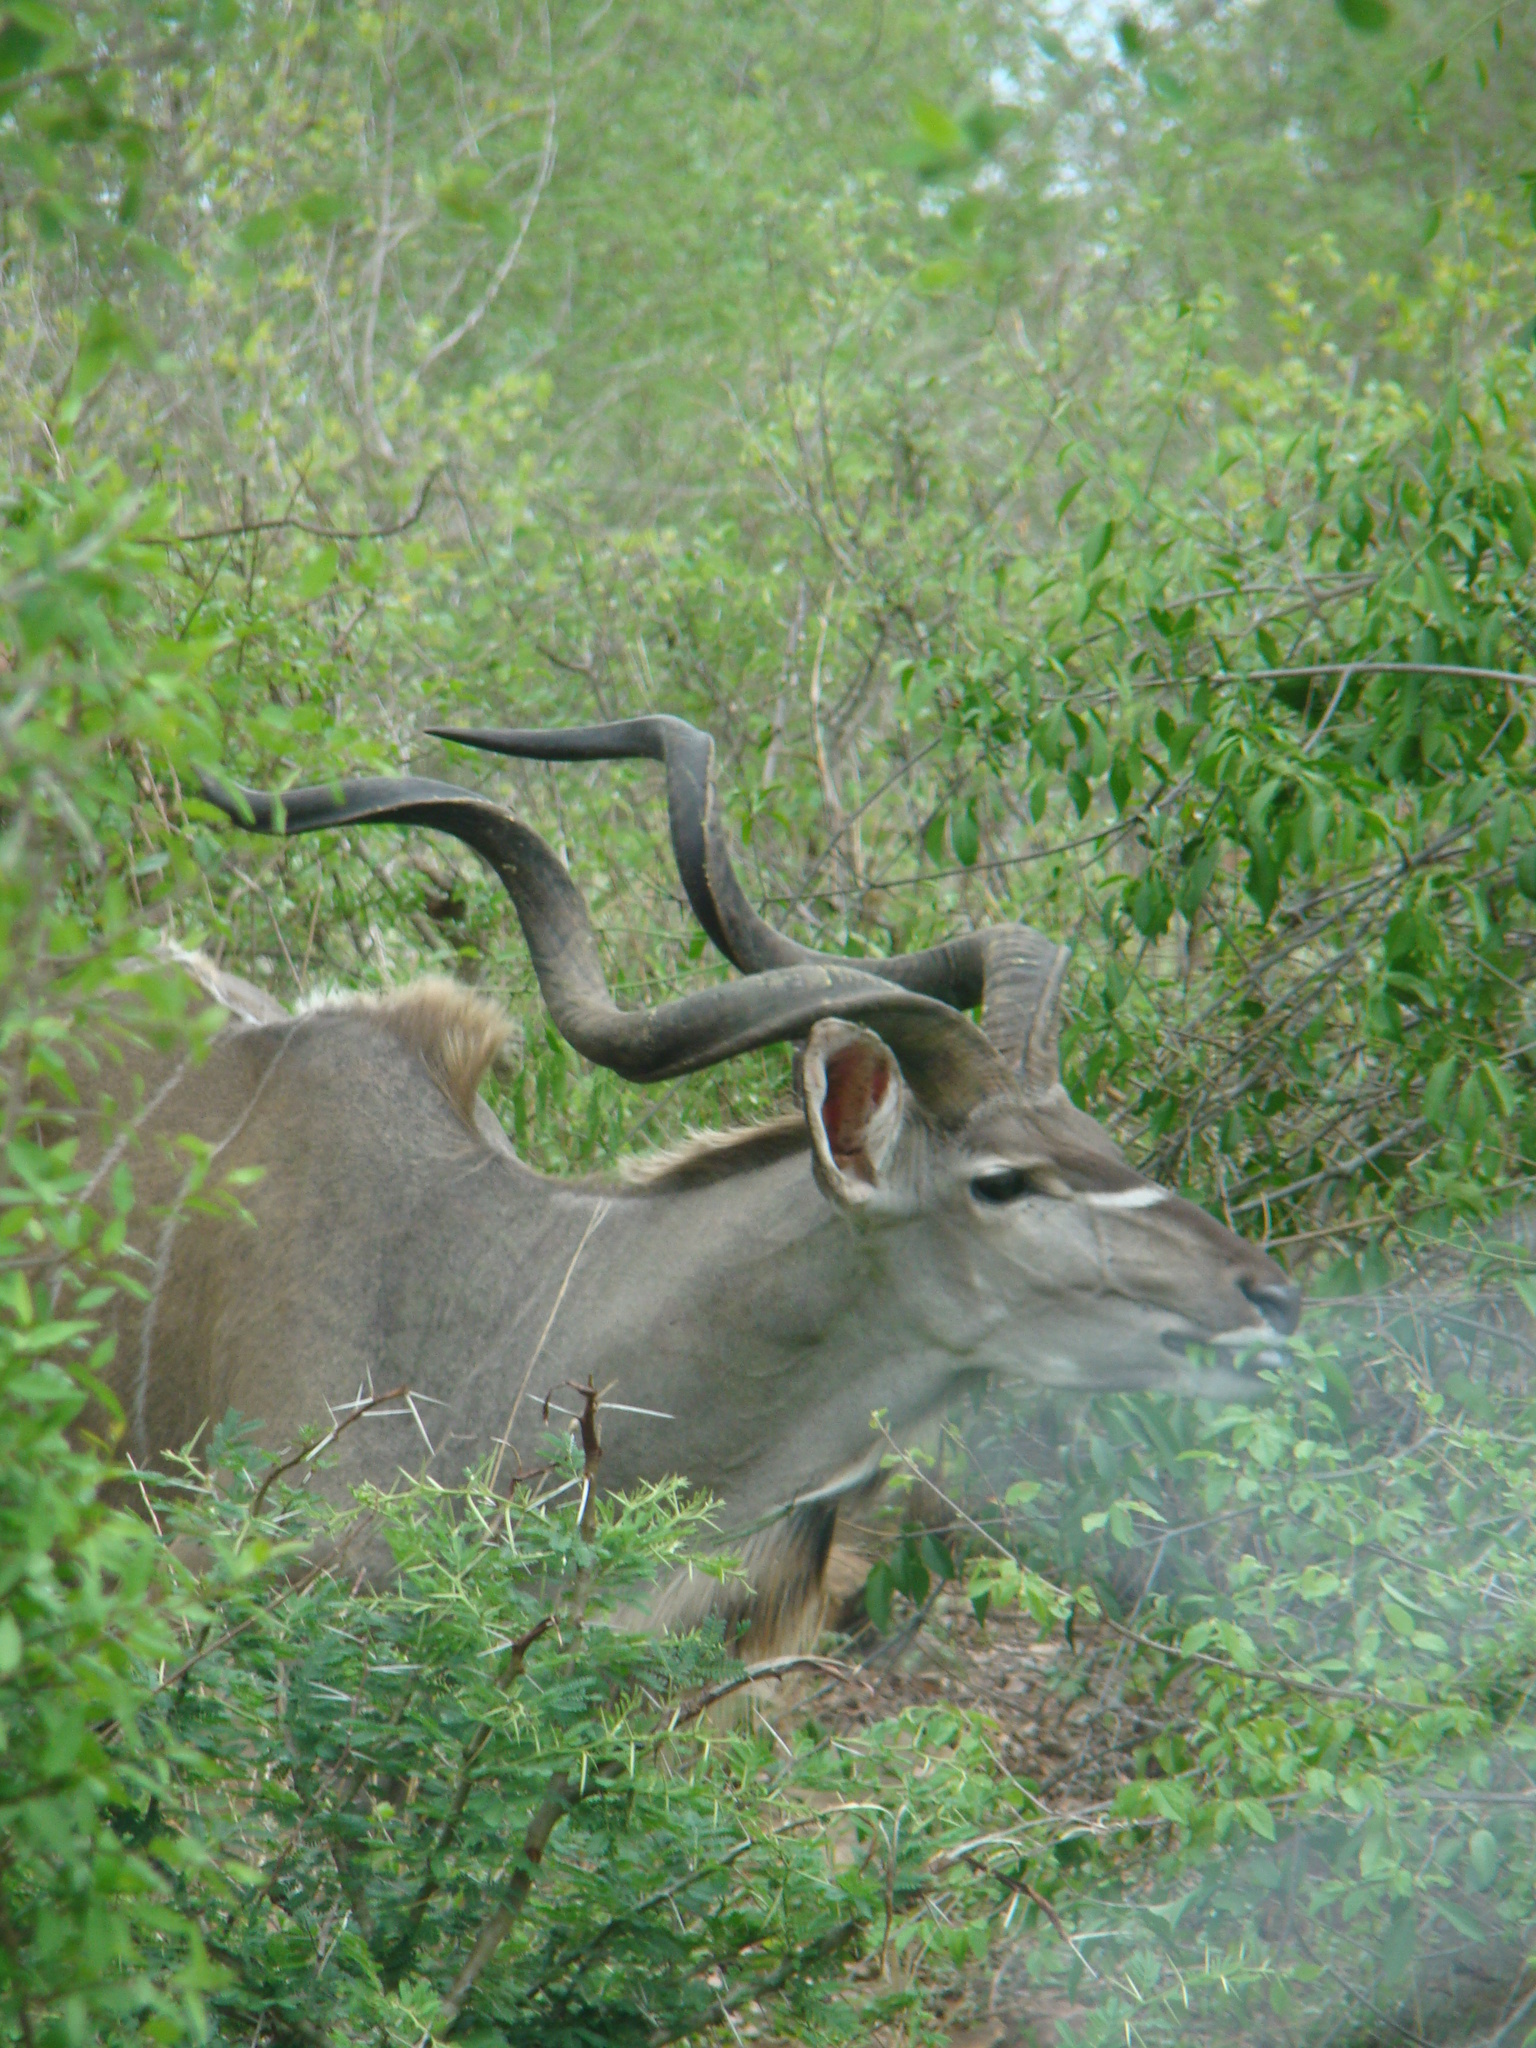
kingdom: Animalia
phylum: Chordata
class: Mammalia
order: Artiodactyla
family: Bovidae
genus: Tragelaphus
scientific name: Tragelaphus strepsiceros
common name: Greater kudu
